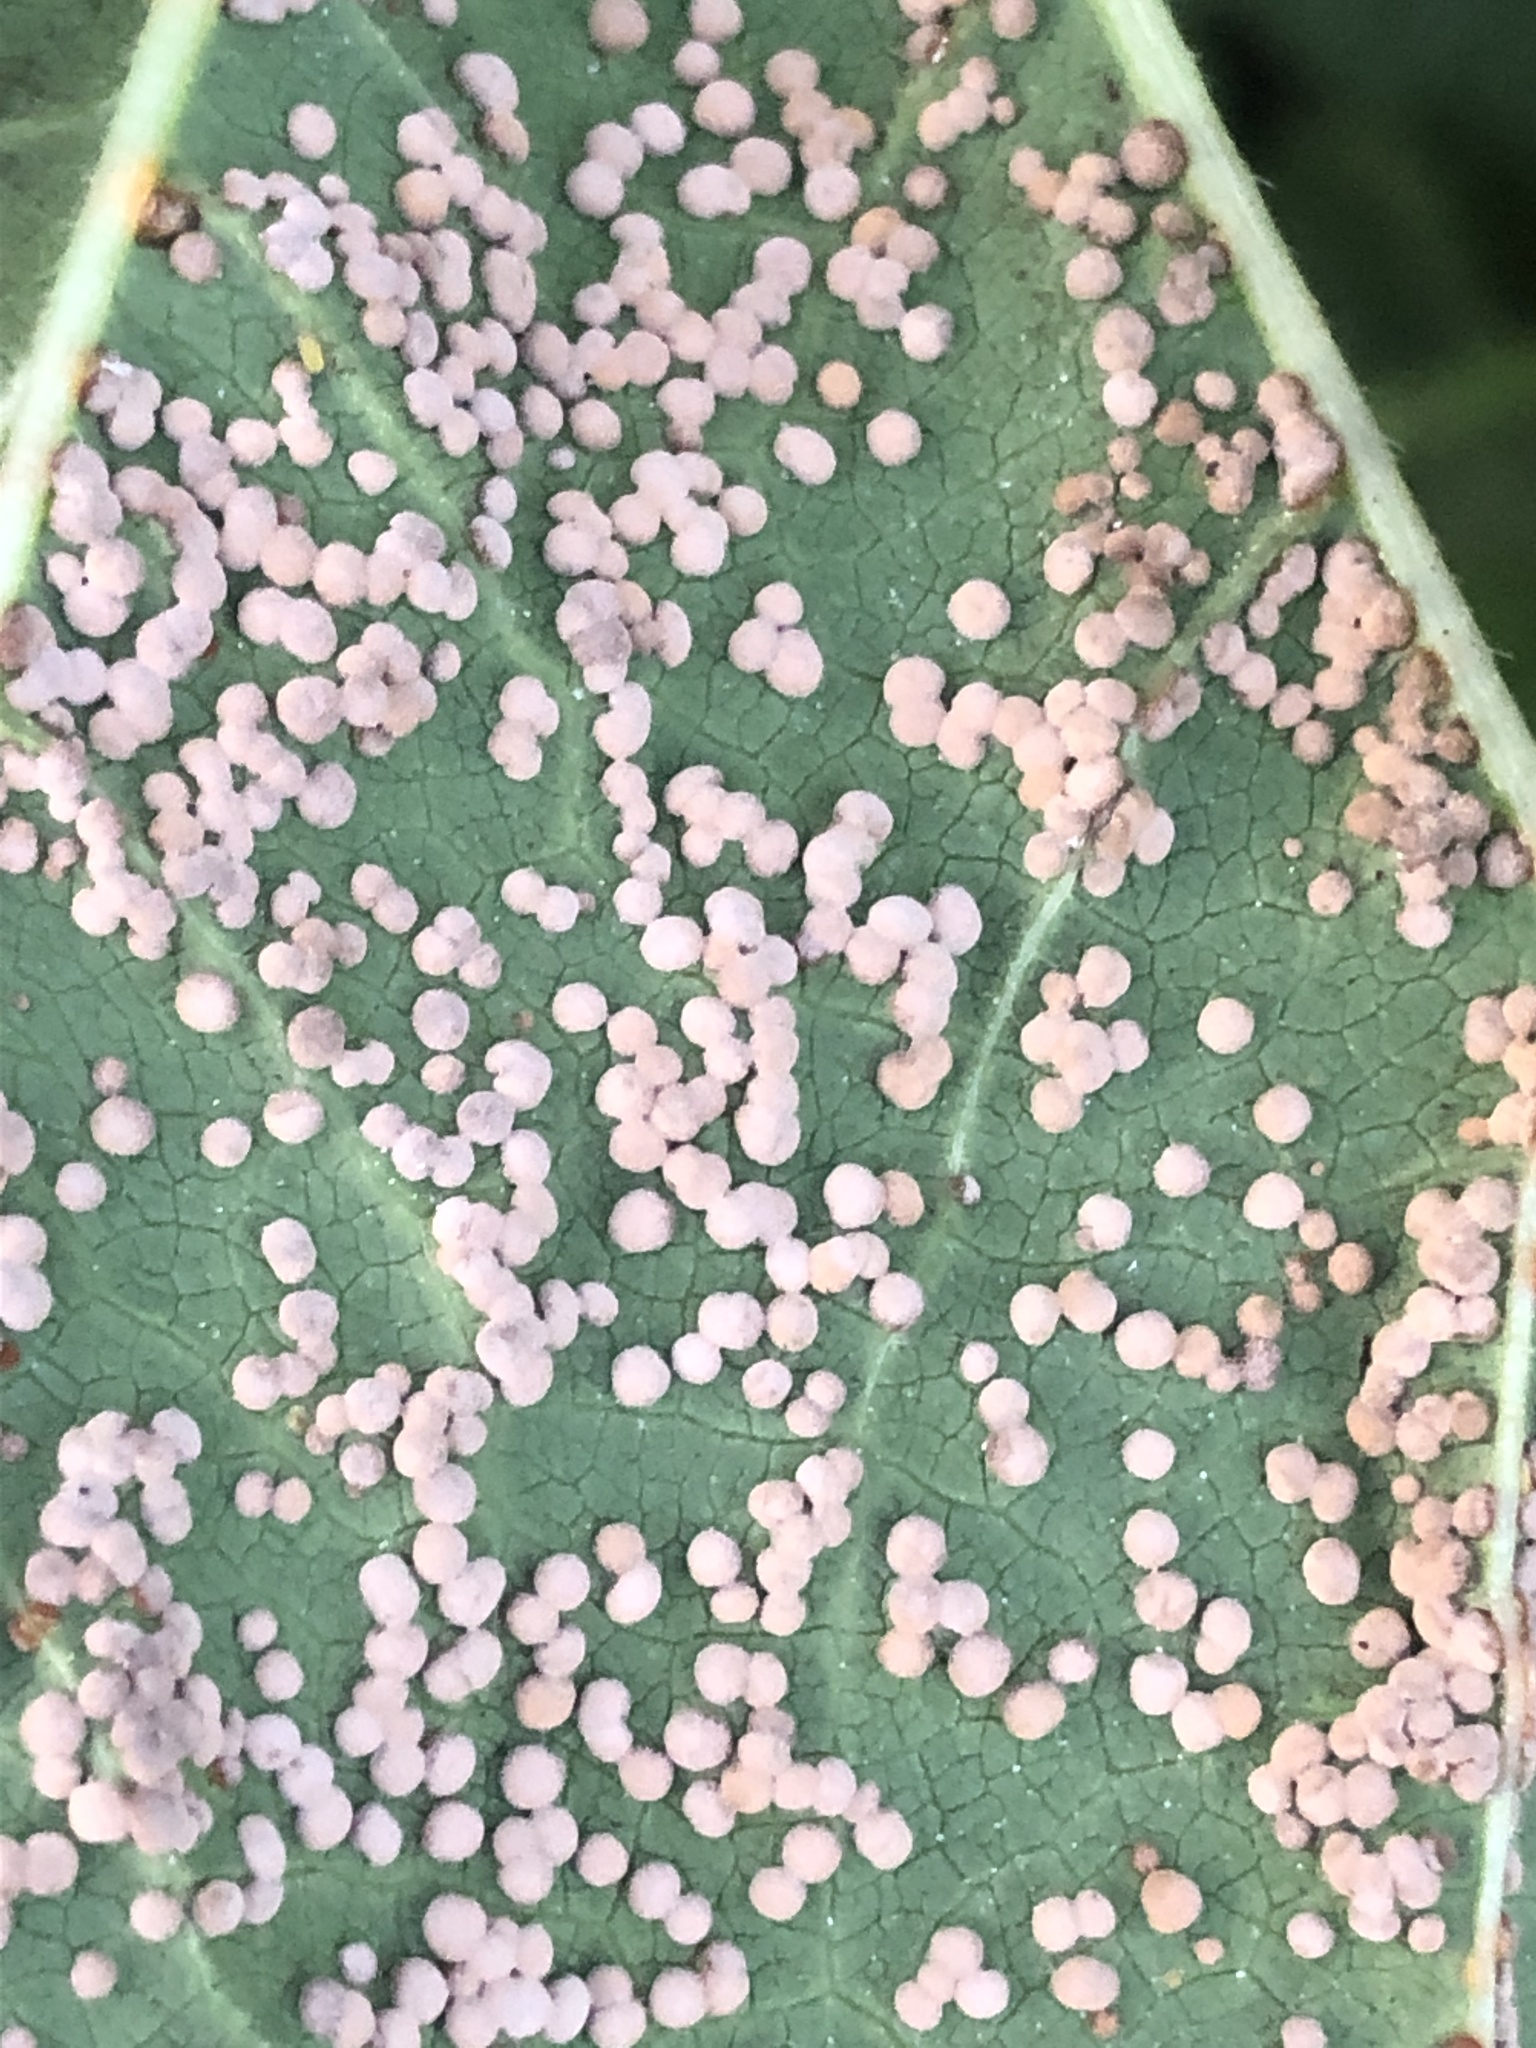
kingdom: Fungi
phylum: Basidiomycota
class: Pucciniomycetes
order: Pucciniales
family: Pucciniaceae
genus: Puccinia
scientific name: Puccinia malvacearum
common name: Hollyhock rust
